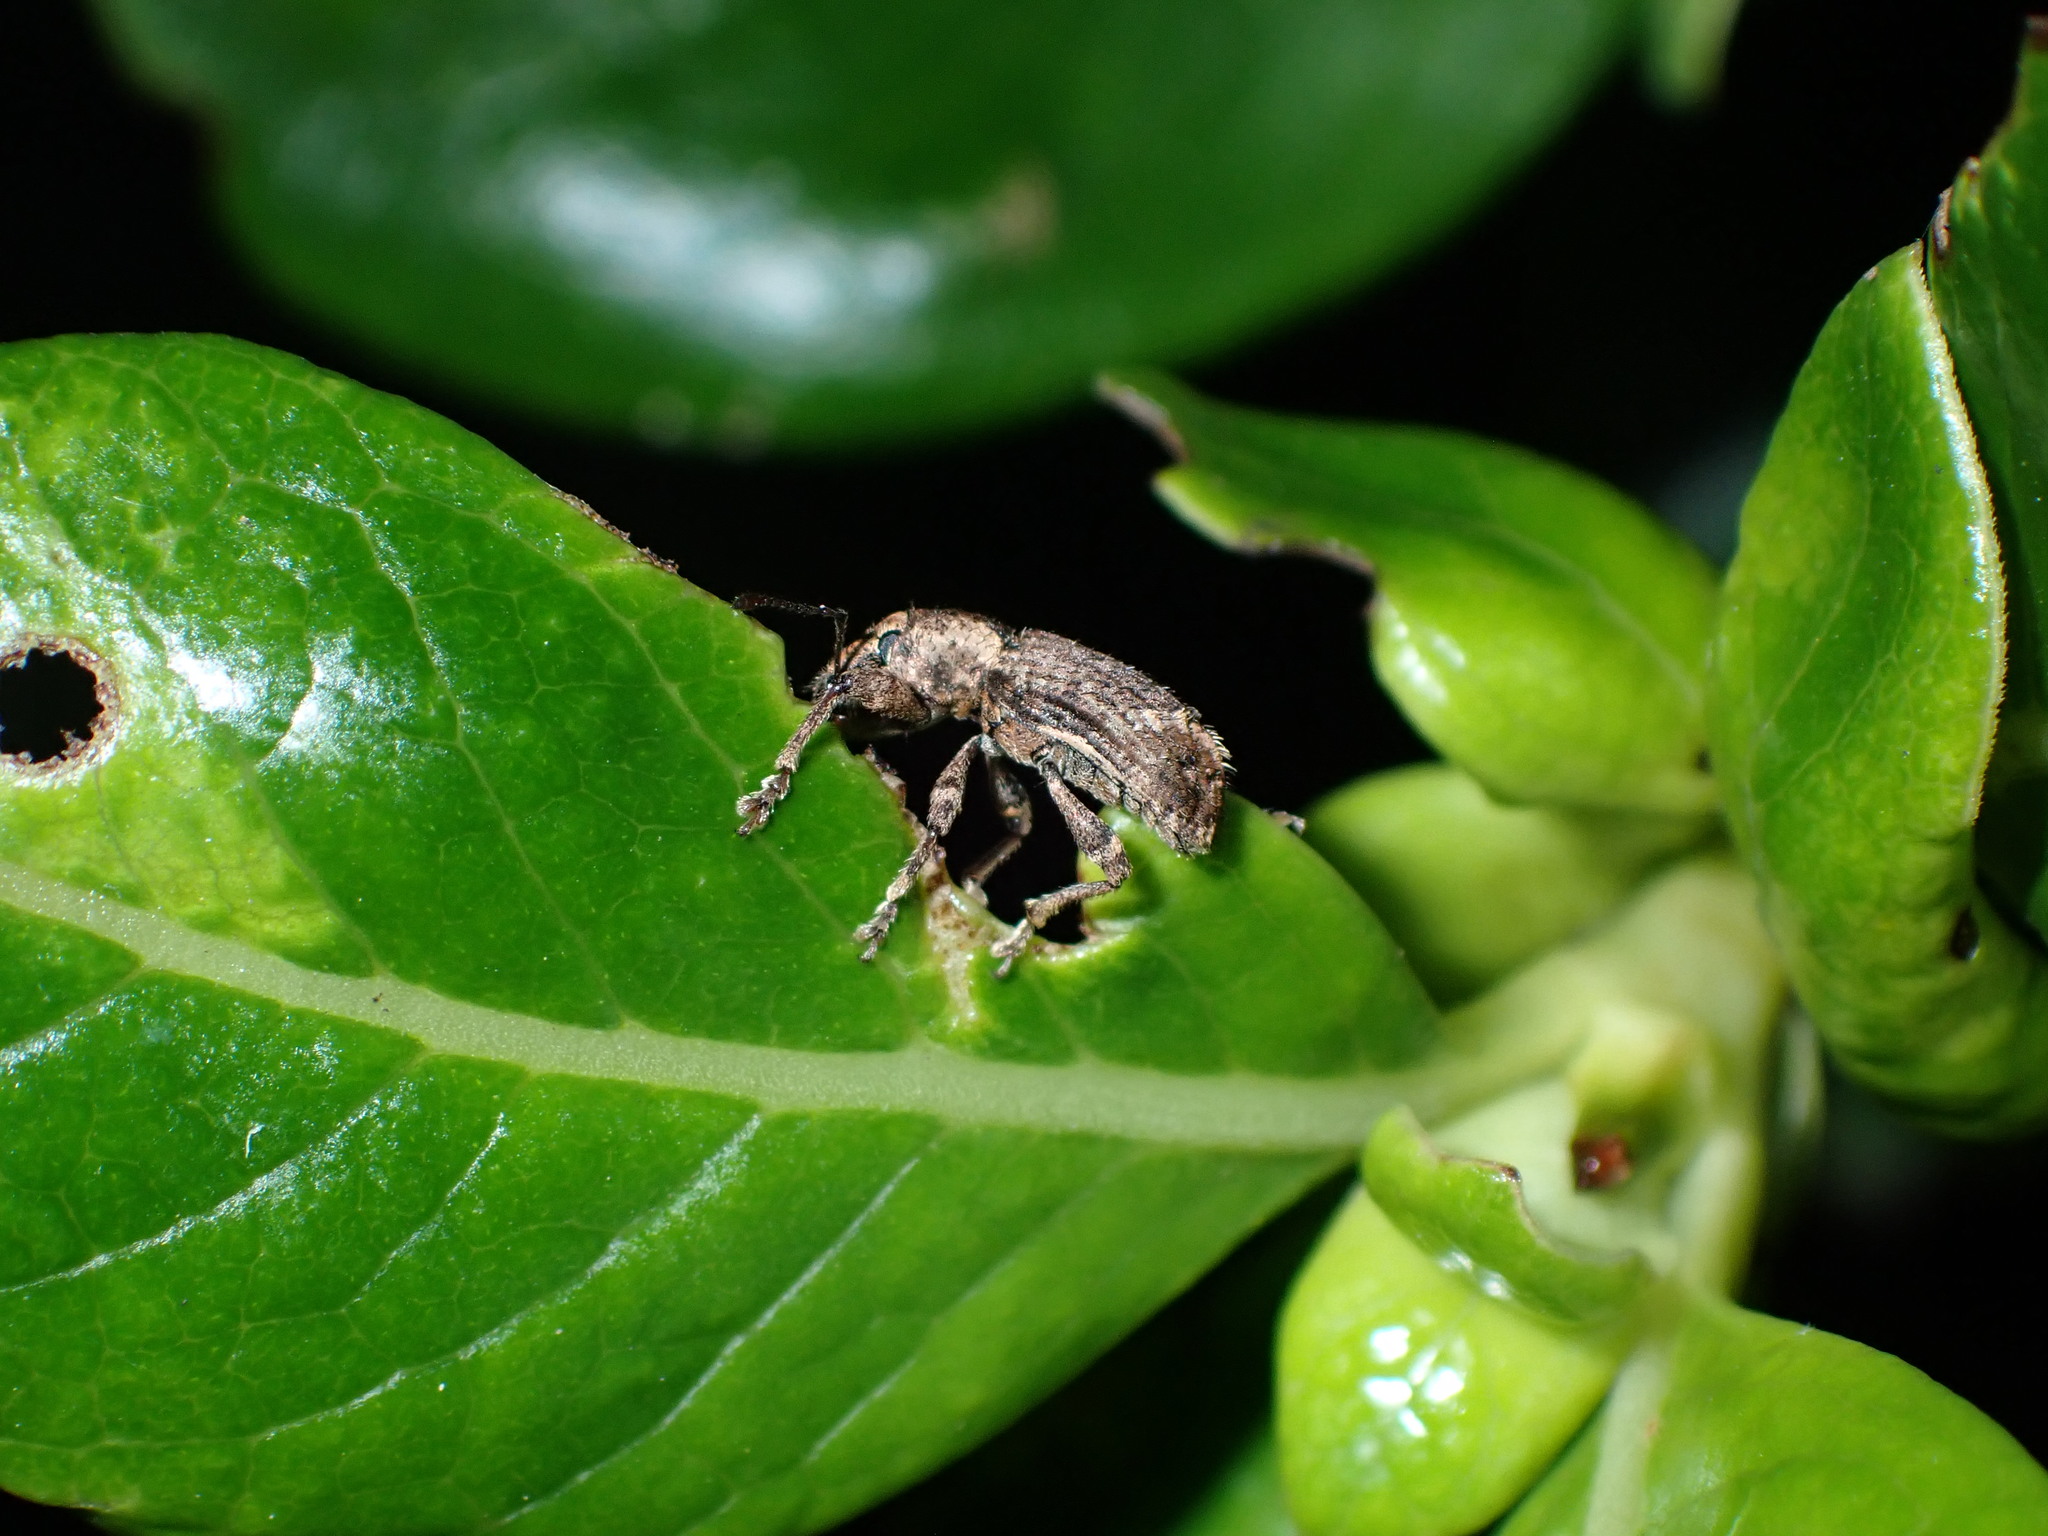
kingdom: Animalia
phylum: Arthropoda
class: Insecta
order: Coleoptera
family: Curculionidae
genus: Chalepistes
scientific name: Chalepistes compressus
